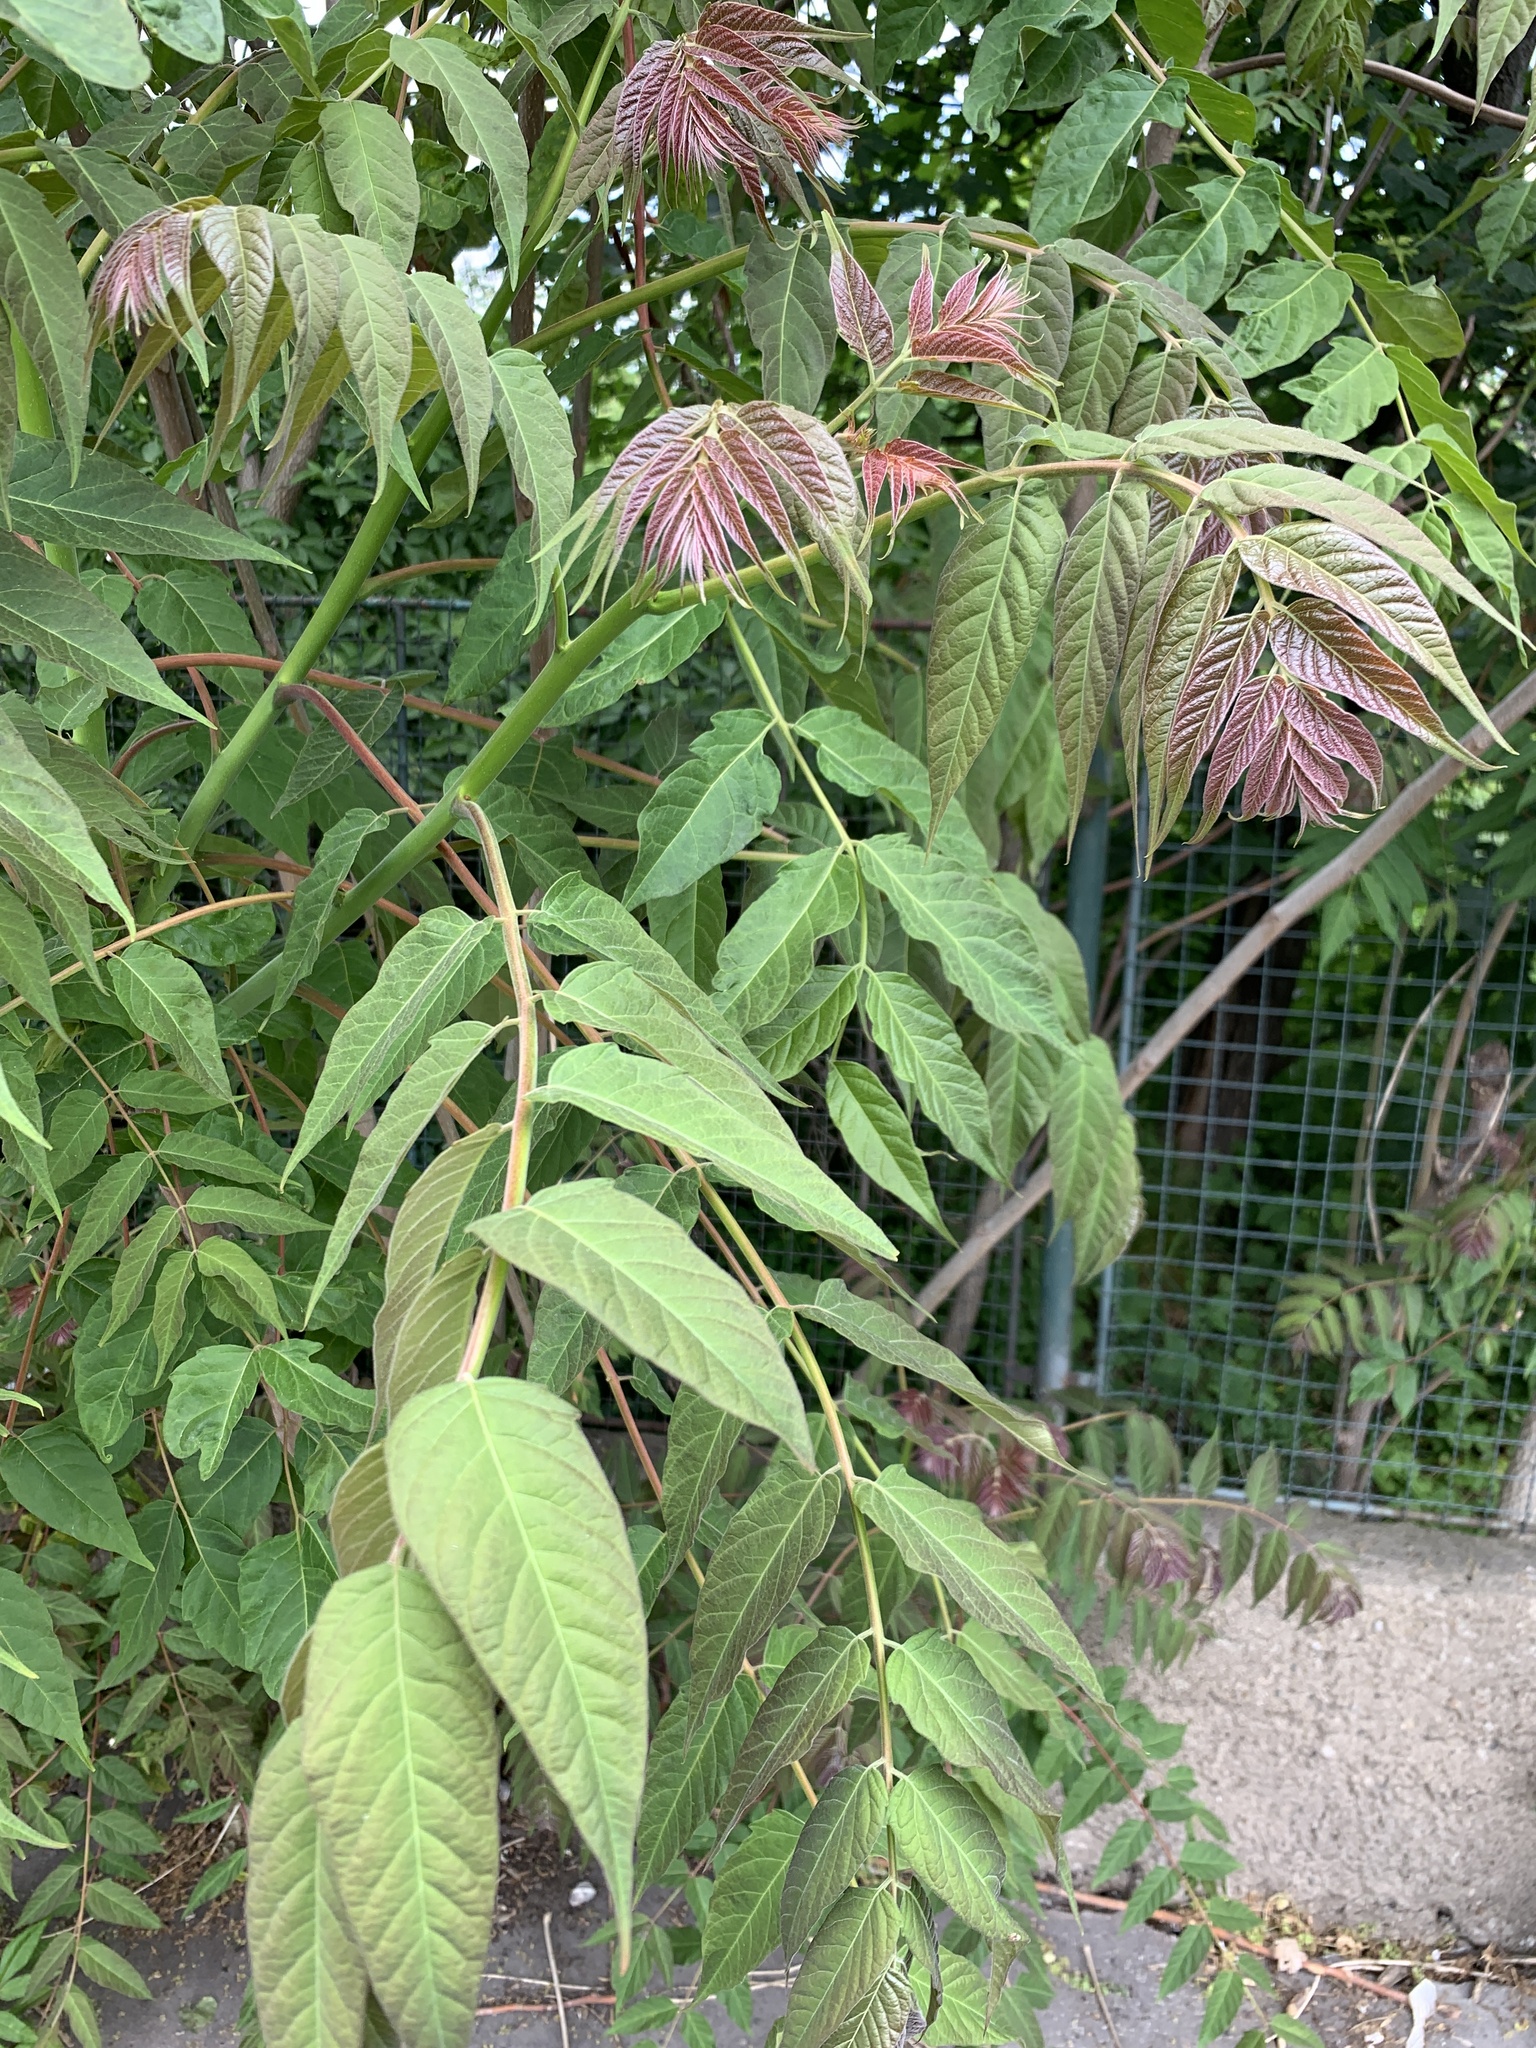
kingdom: Plantae
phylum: Tracheophyta
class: Magnoliopsida
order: Sapindales
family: Simaroubaceae
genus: Ailanthus
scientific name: Ailanthus altissima
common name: Tree-of-heaven
